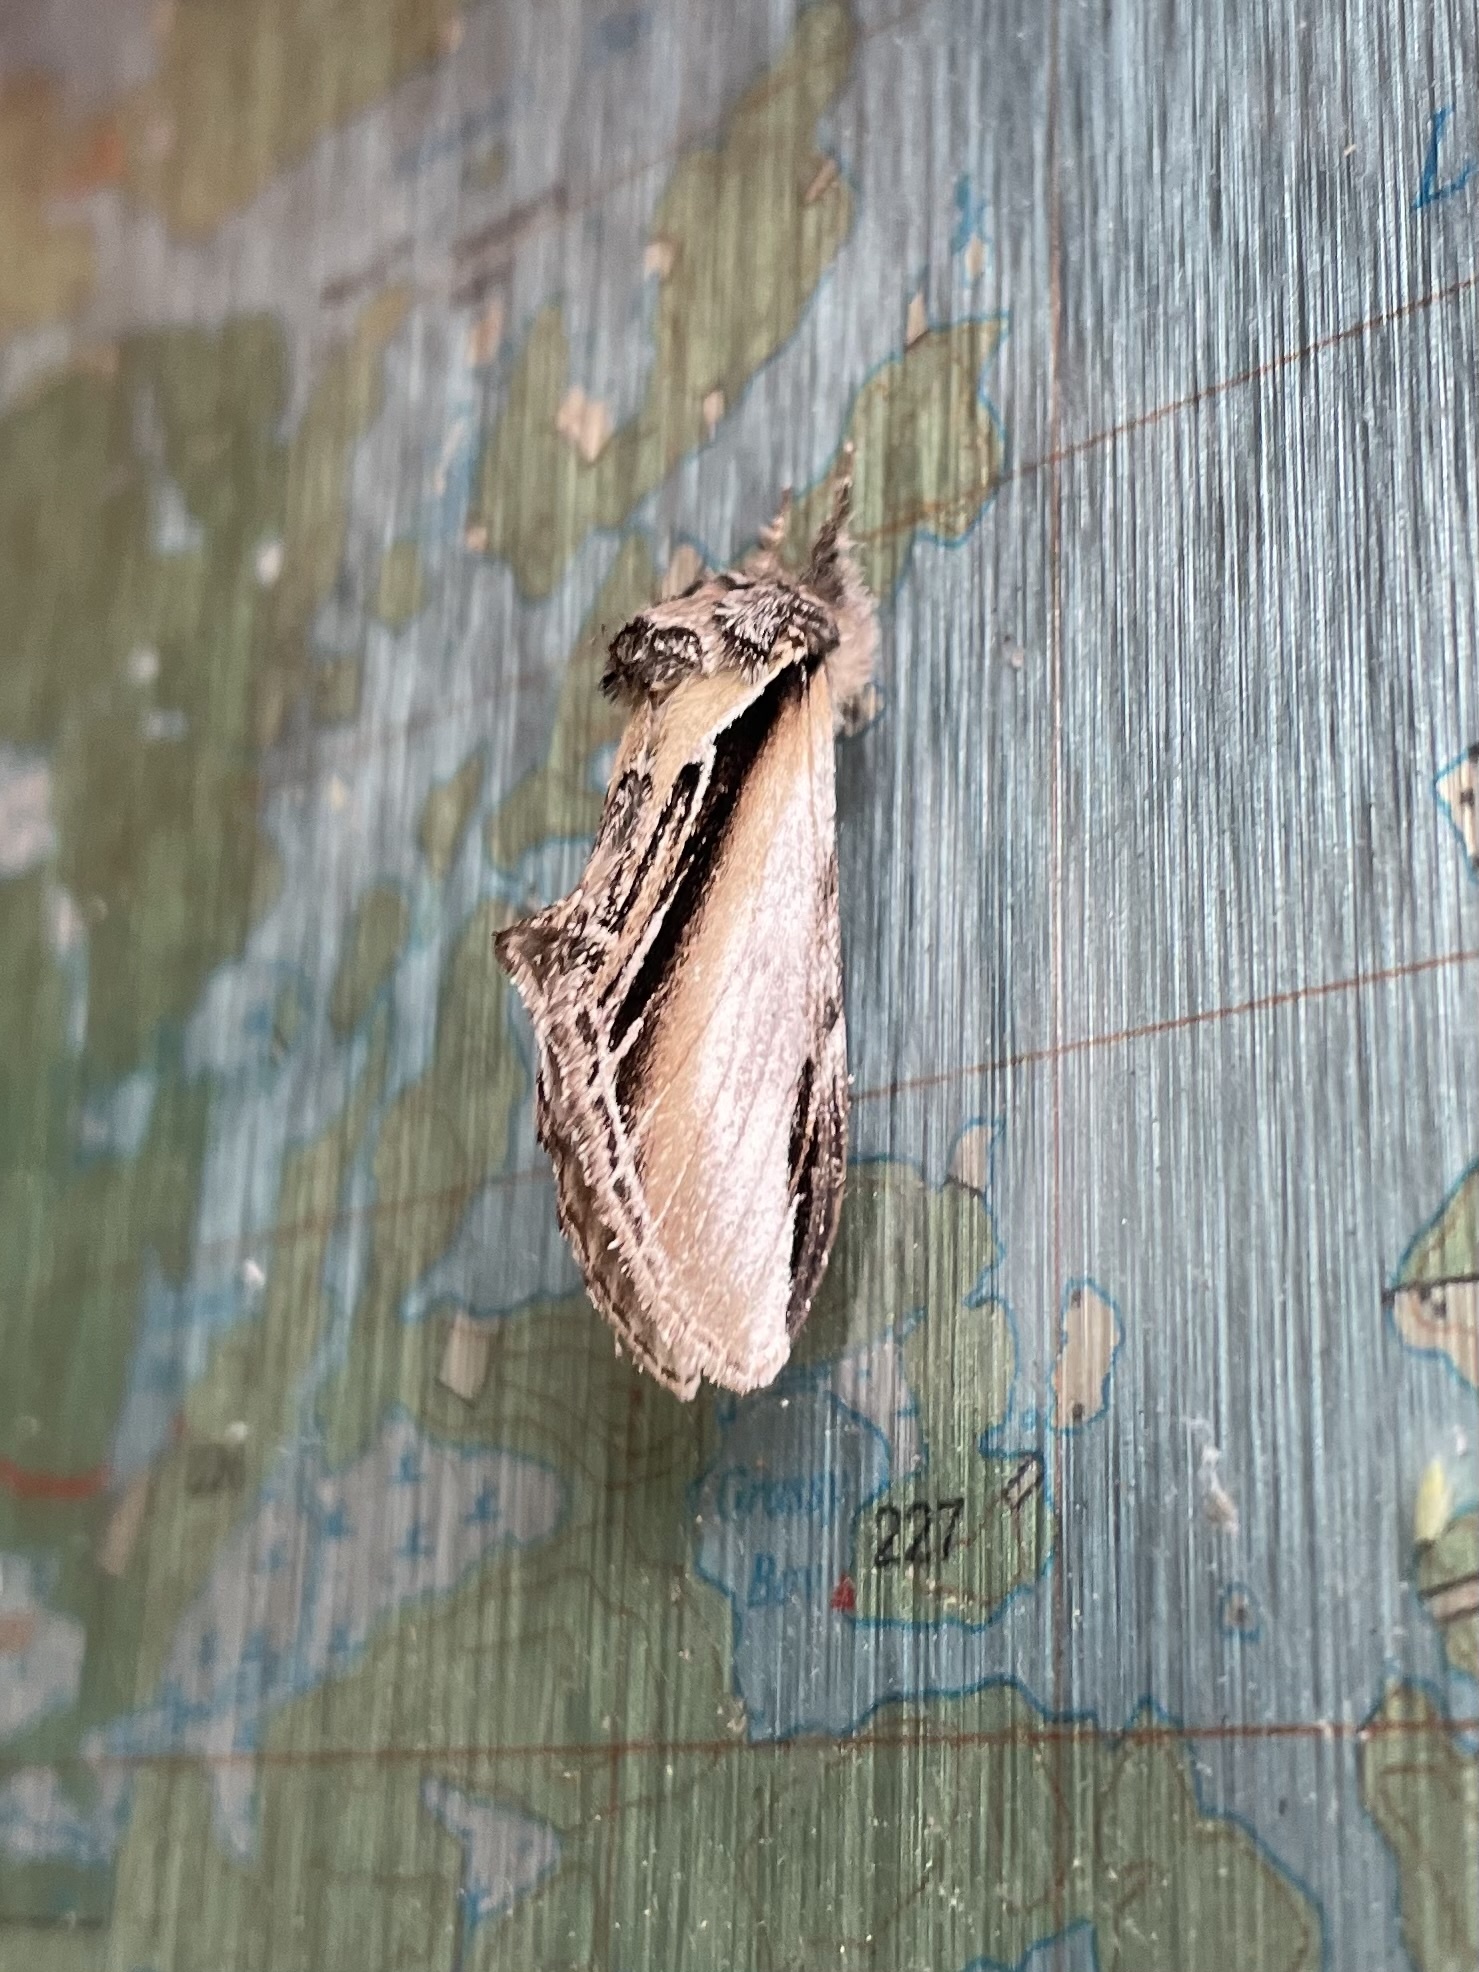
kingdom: Animalia
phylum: Arthropoda
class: Insecta
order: Lepidoptera
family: Notodontidae
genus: Pheosia
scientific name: Pheosia rimosa
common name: Black-rimmed prominent
